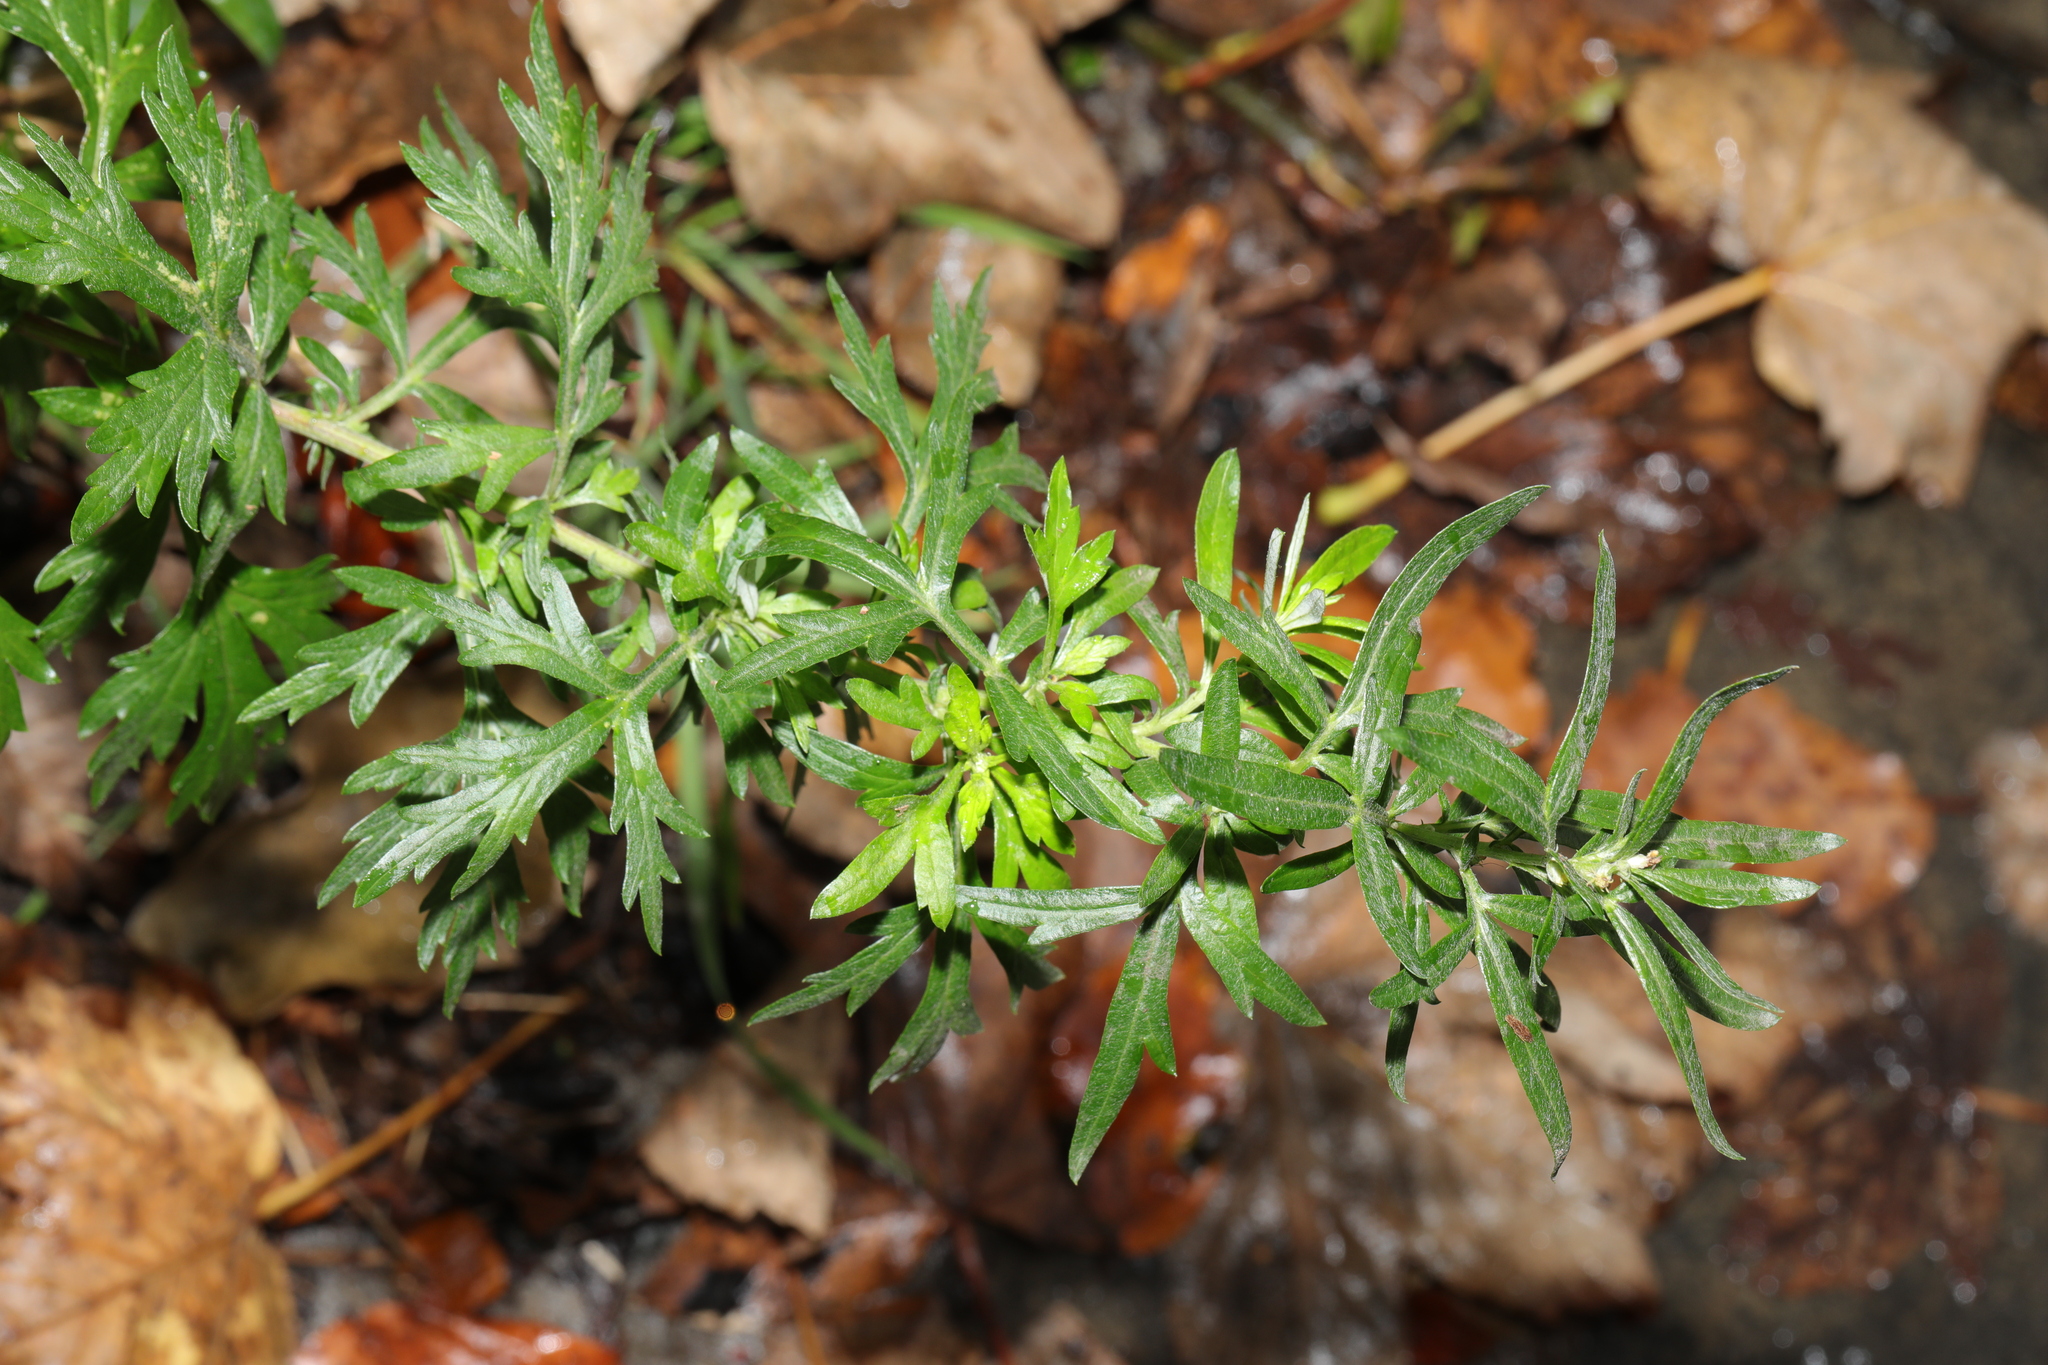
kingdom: Plantae
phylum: Tracheophyta
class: Magnoliopsida
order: Asterales
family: Asteraceae
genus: Artemisia
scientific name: Artemisia vulgaris
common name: Mugwort
